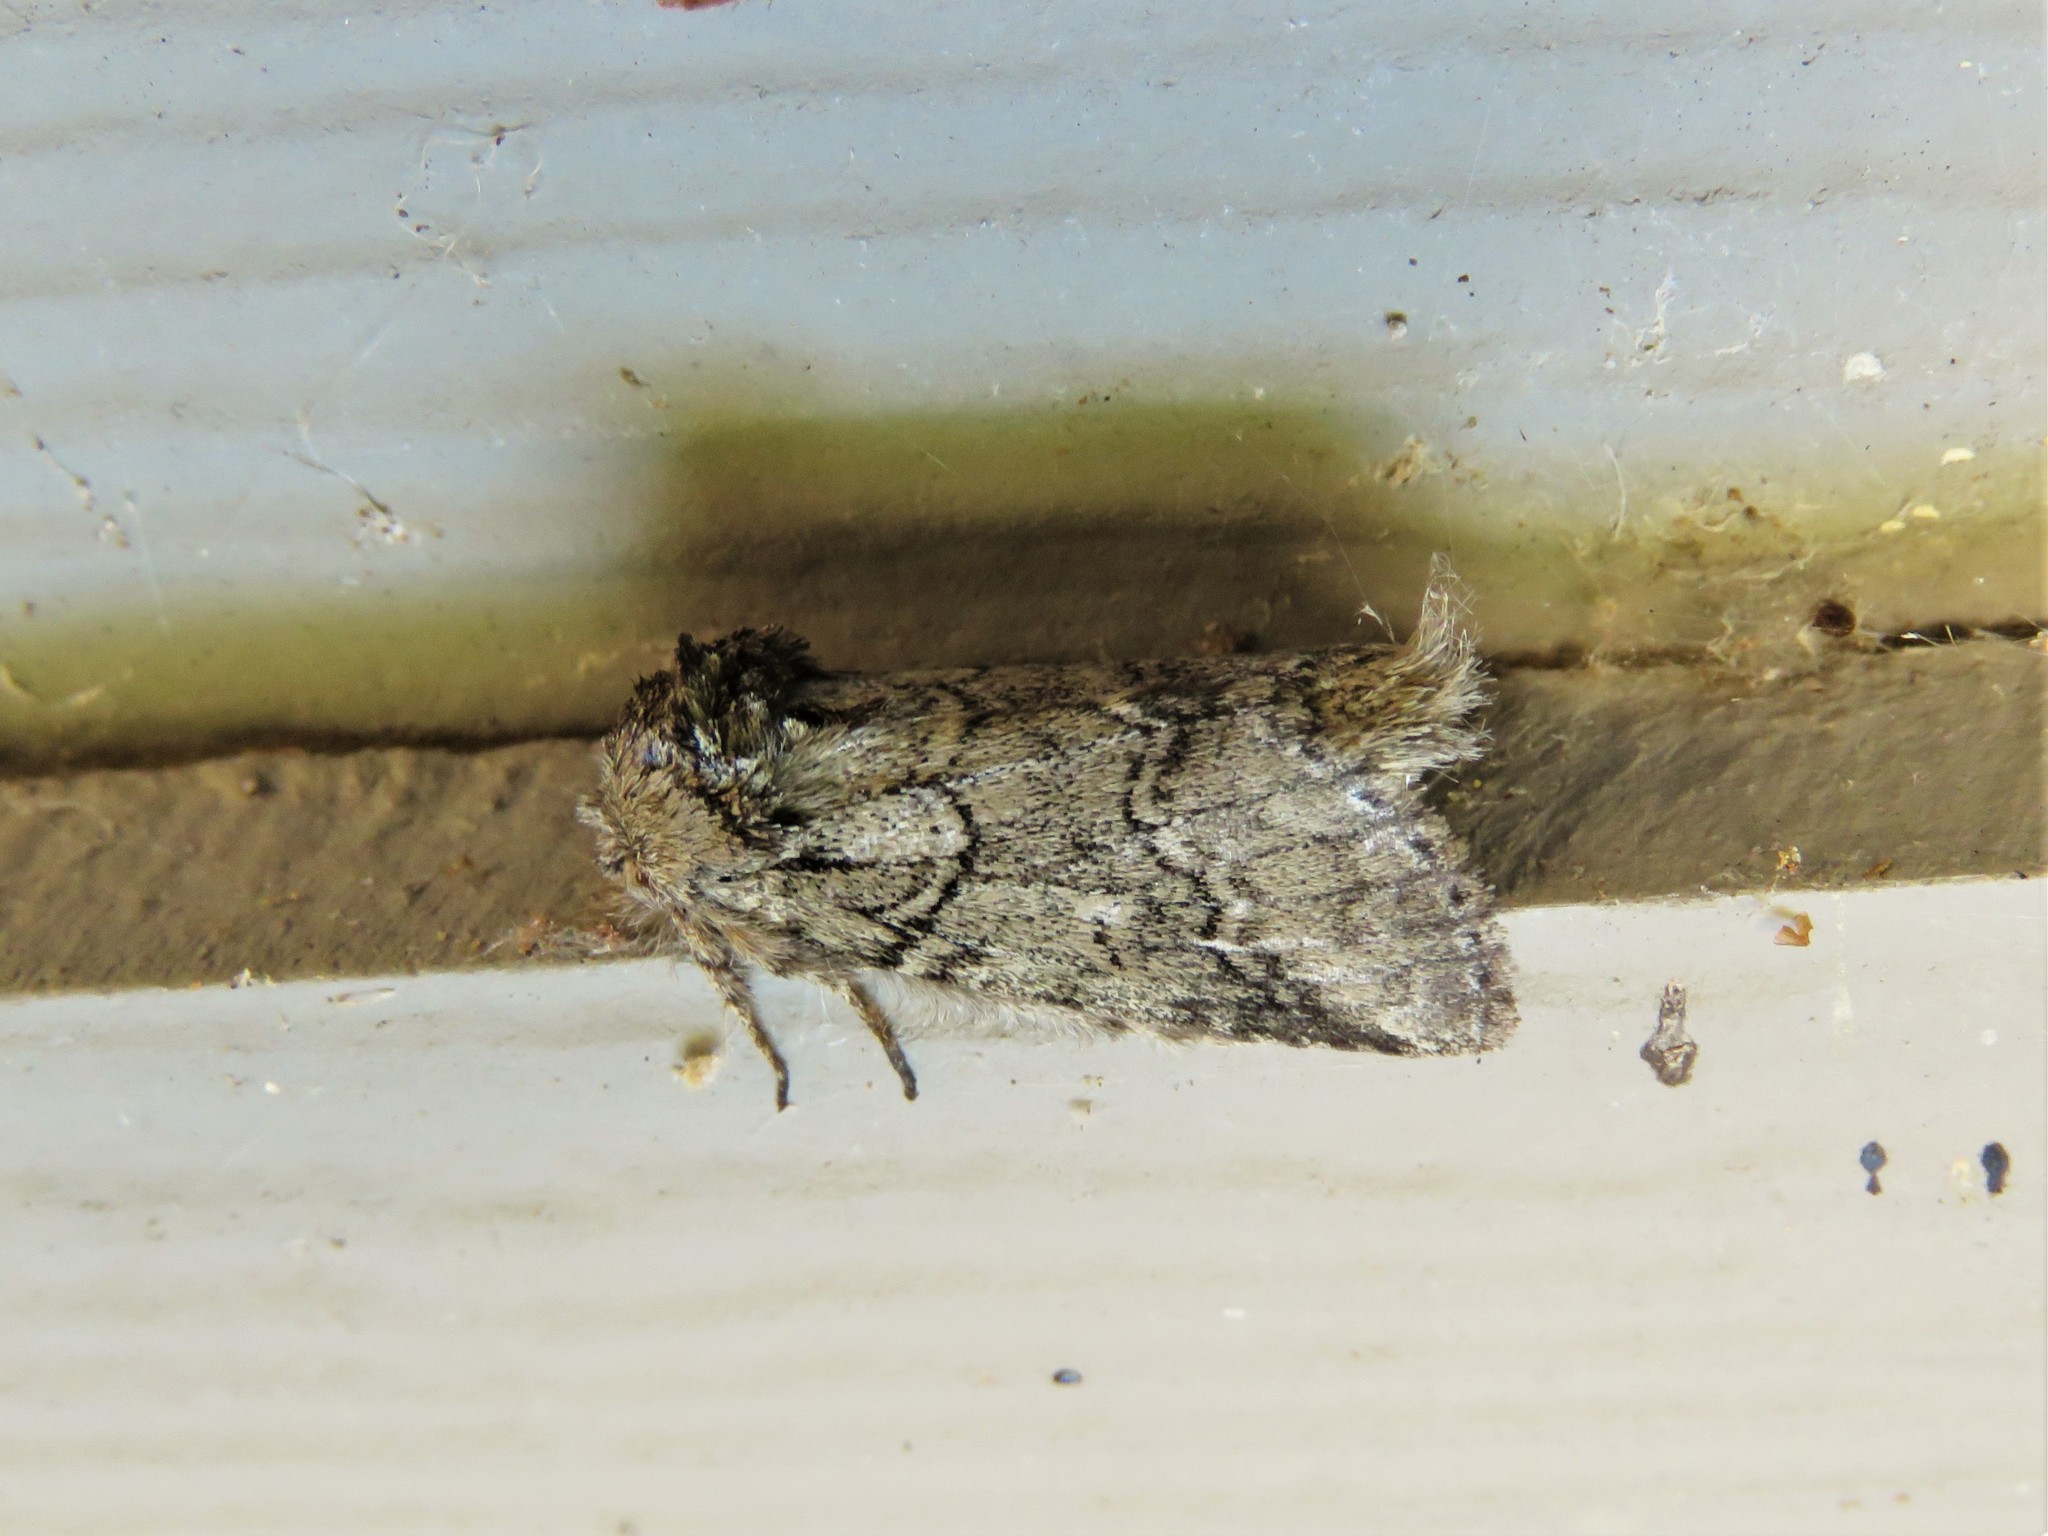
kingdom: Animalia
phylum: Arthropoda
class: Insecta
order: Lepidoptera
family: Notodontidae
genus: Lochmaeus
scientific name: Lochmaeus bilineata
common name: Double-lined prominent
